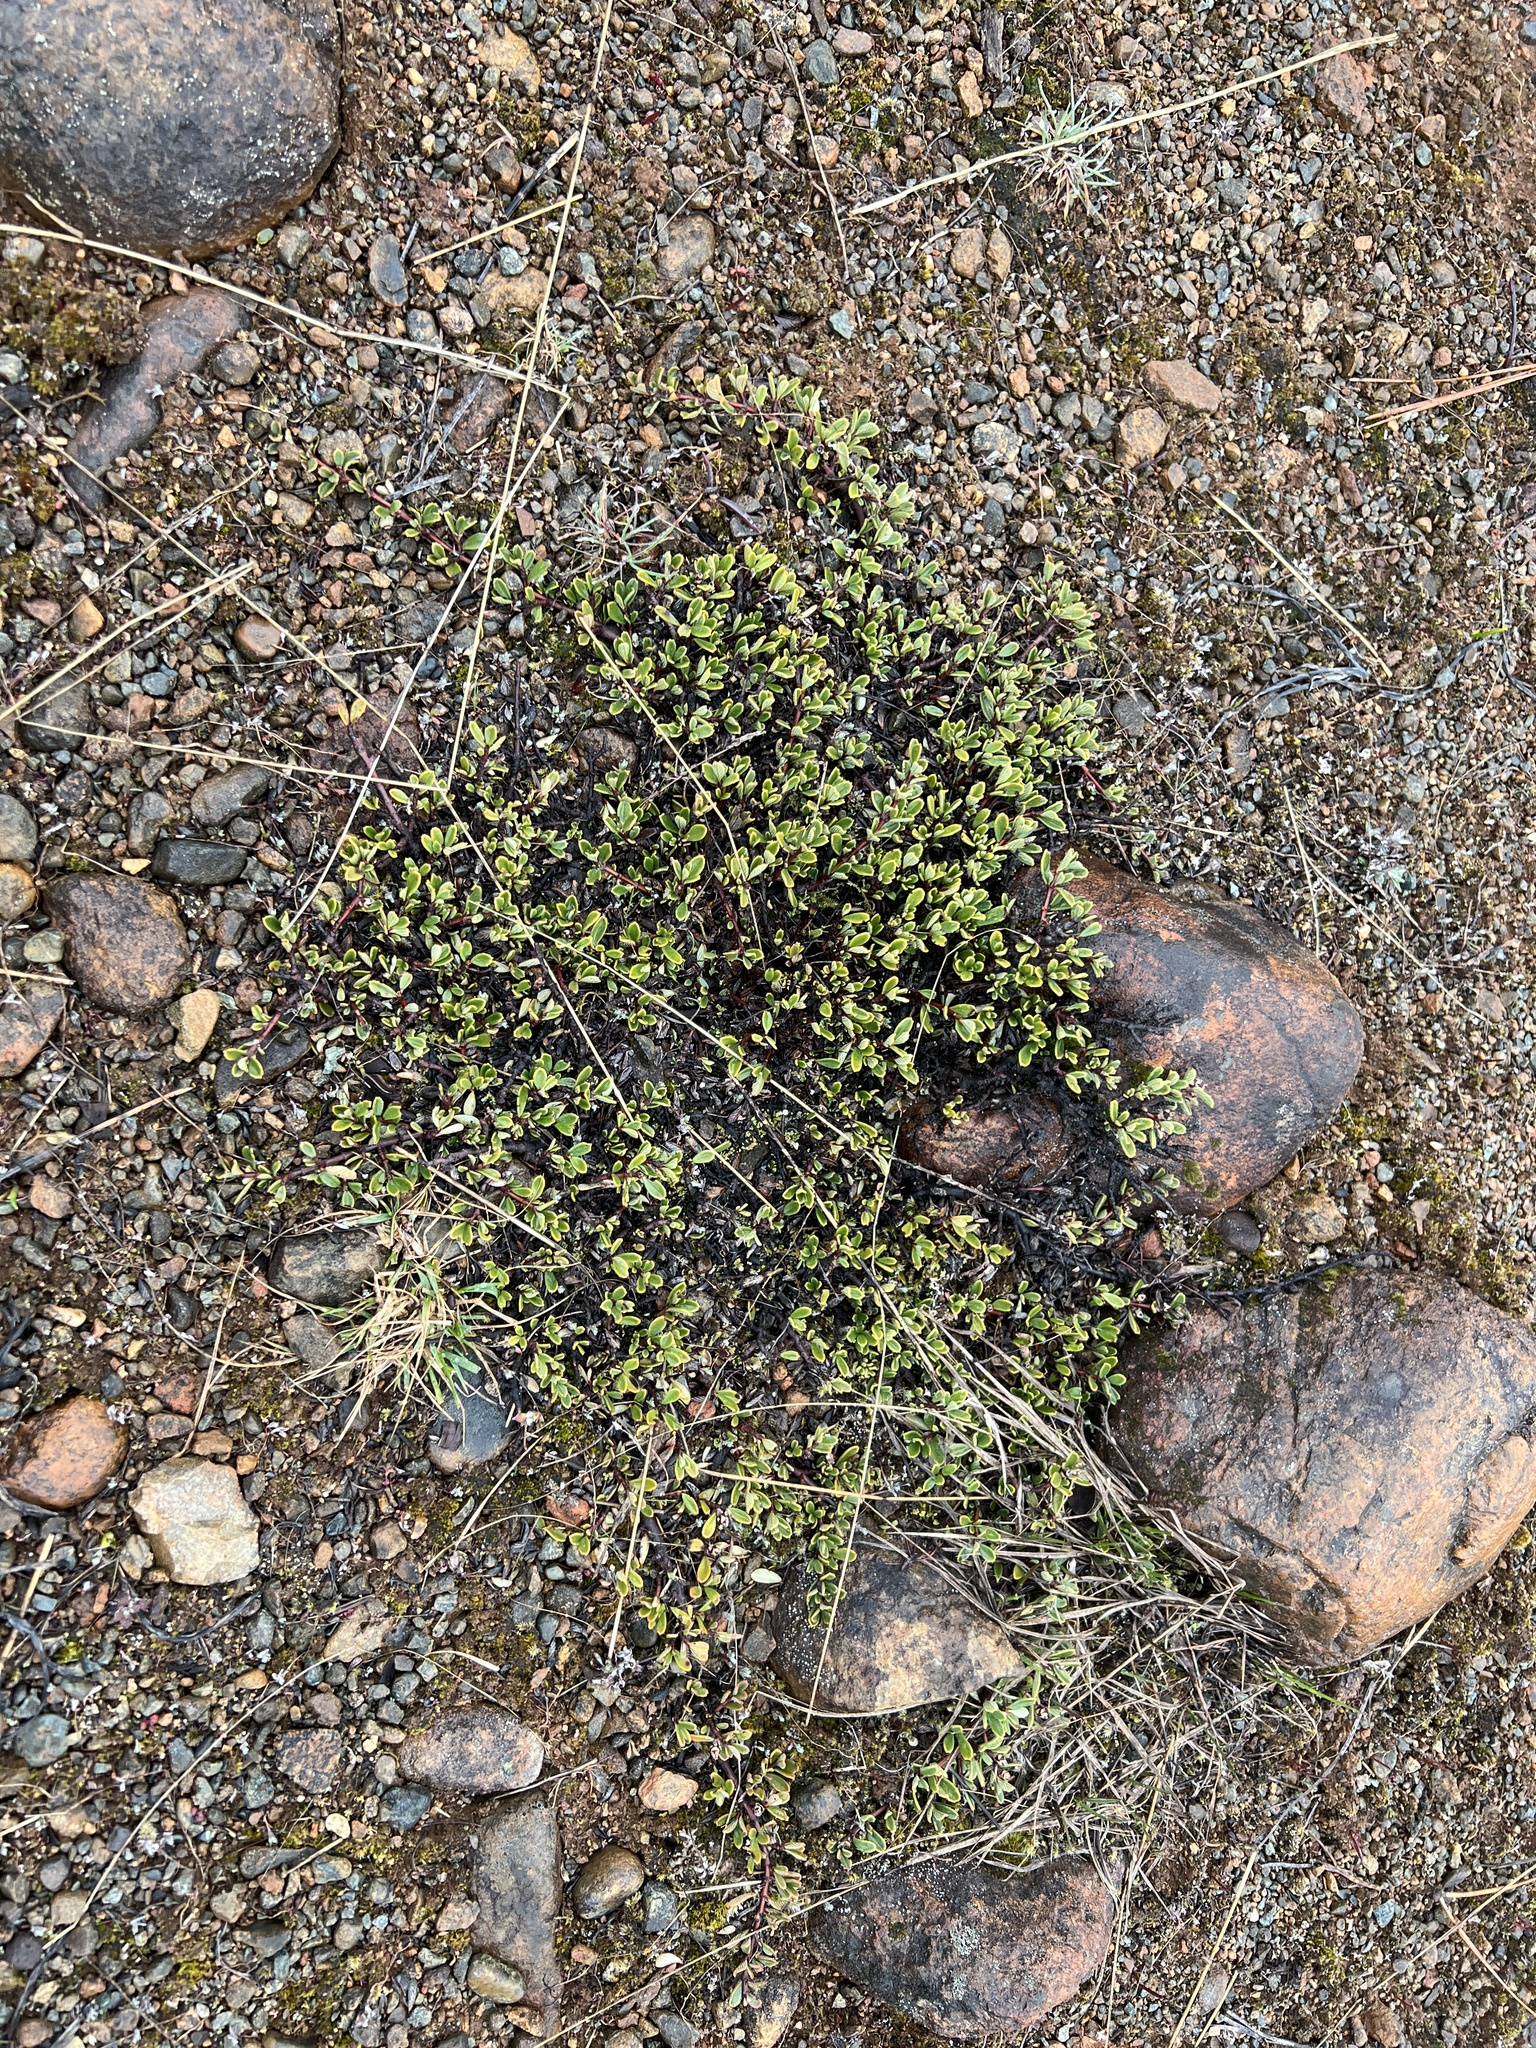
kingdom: Plantae
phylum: Tracheophyta
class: Magnoliopsida
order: Rosales
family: Rhamnaceae
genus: Ceanothus
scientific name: Ceanothus pumilus
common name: Siskiyou-mat
